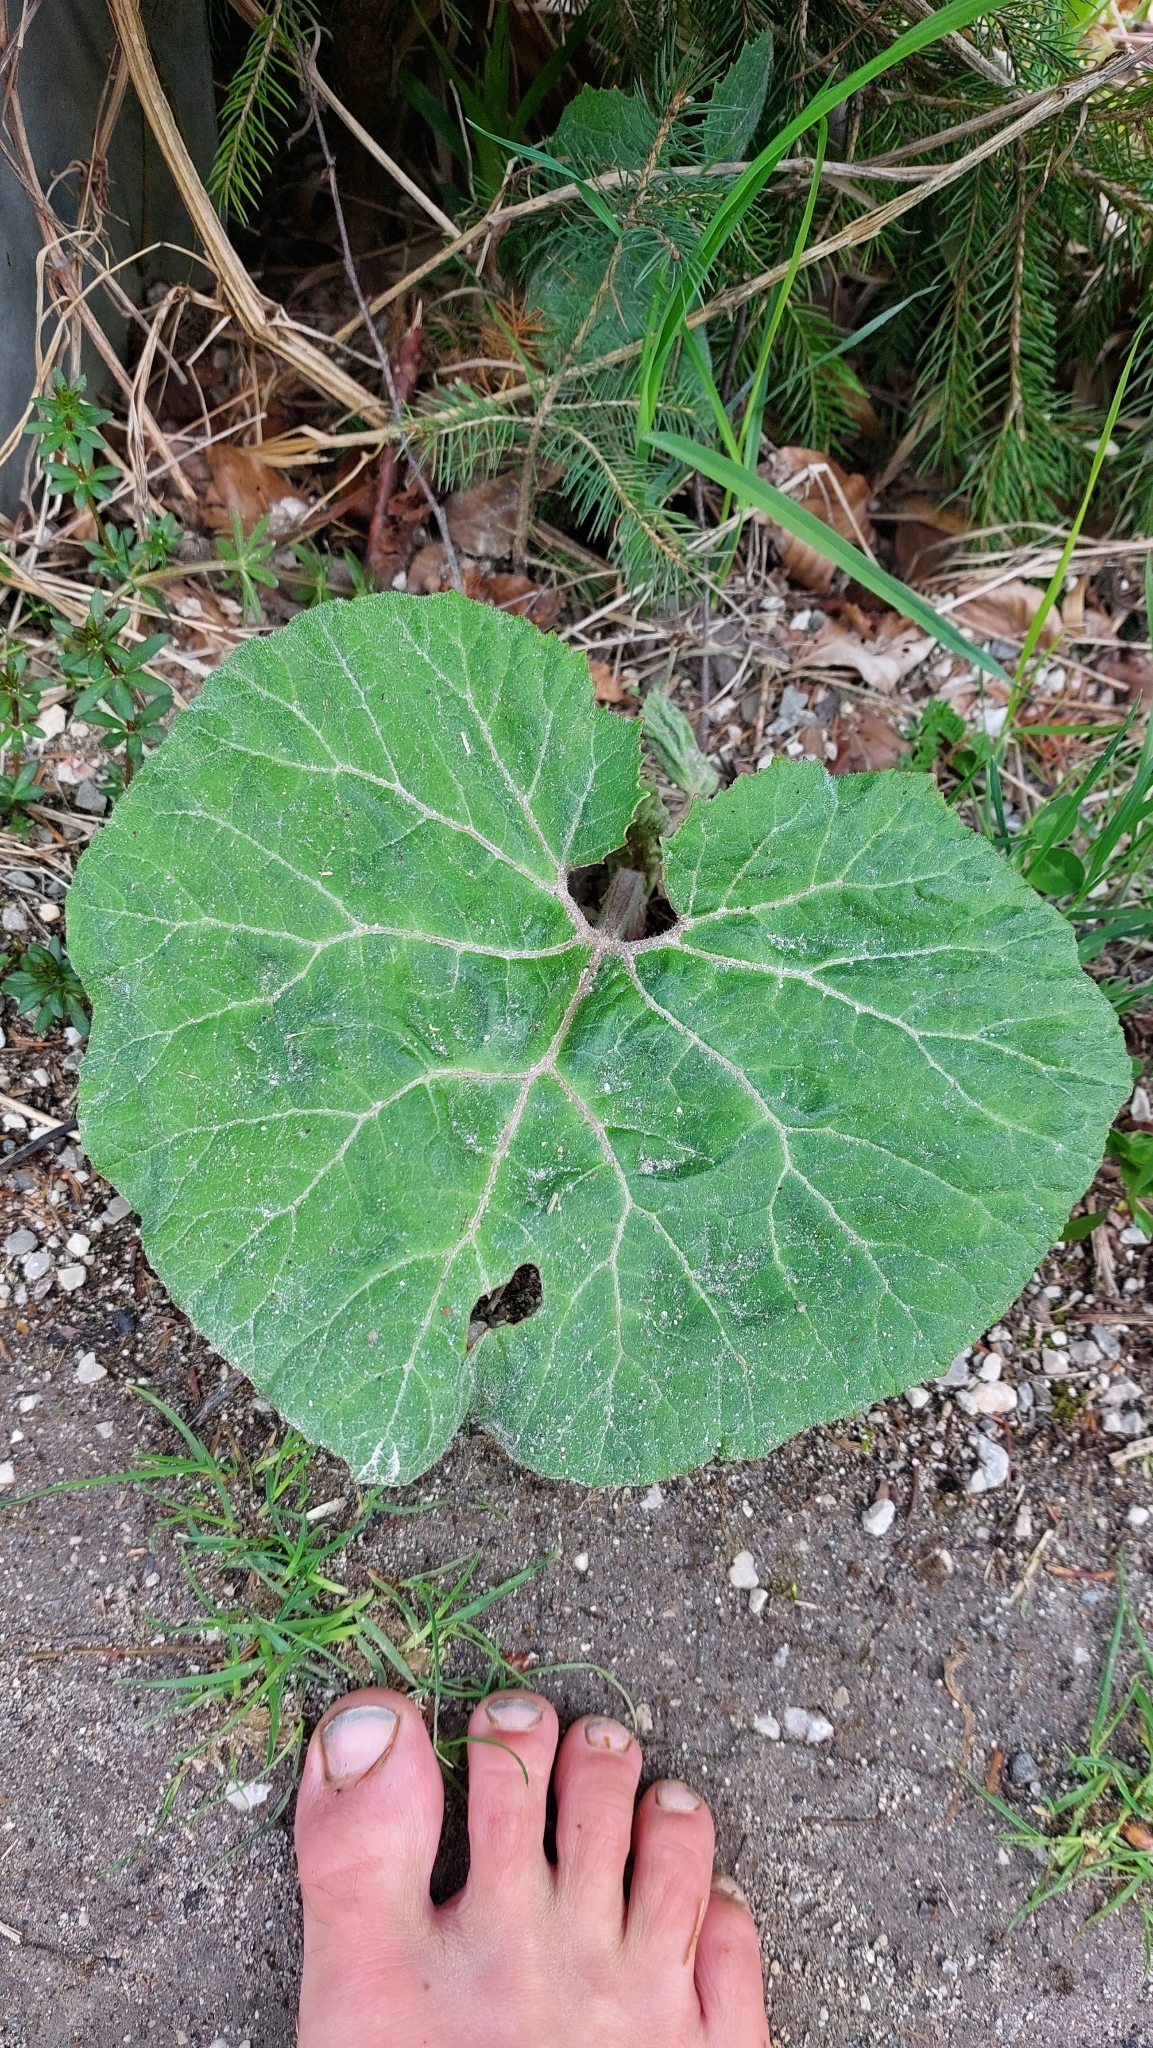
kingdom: Plantae
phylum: Tracheophyta
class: Magnoliopsida
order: Asterales
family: Asteraceae
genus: Petasites
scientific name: Petasites hybridus
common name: Butterbur
